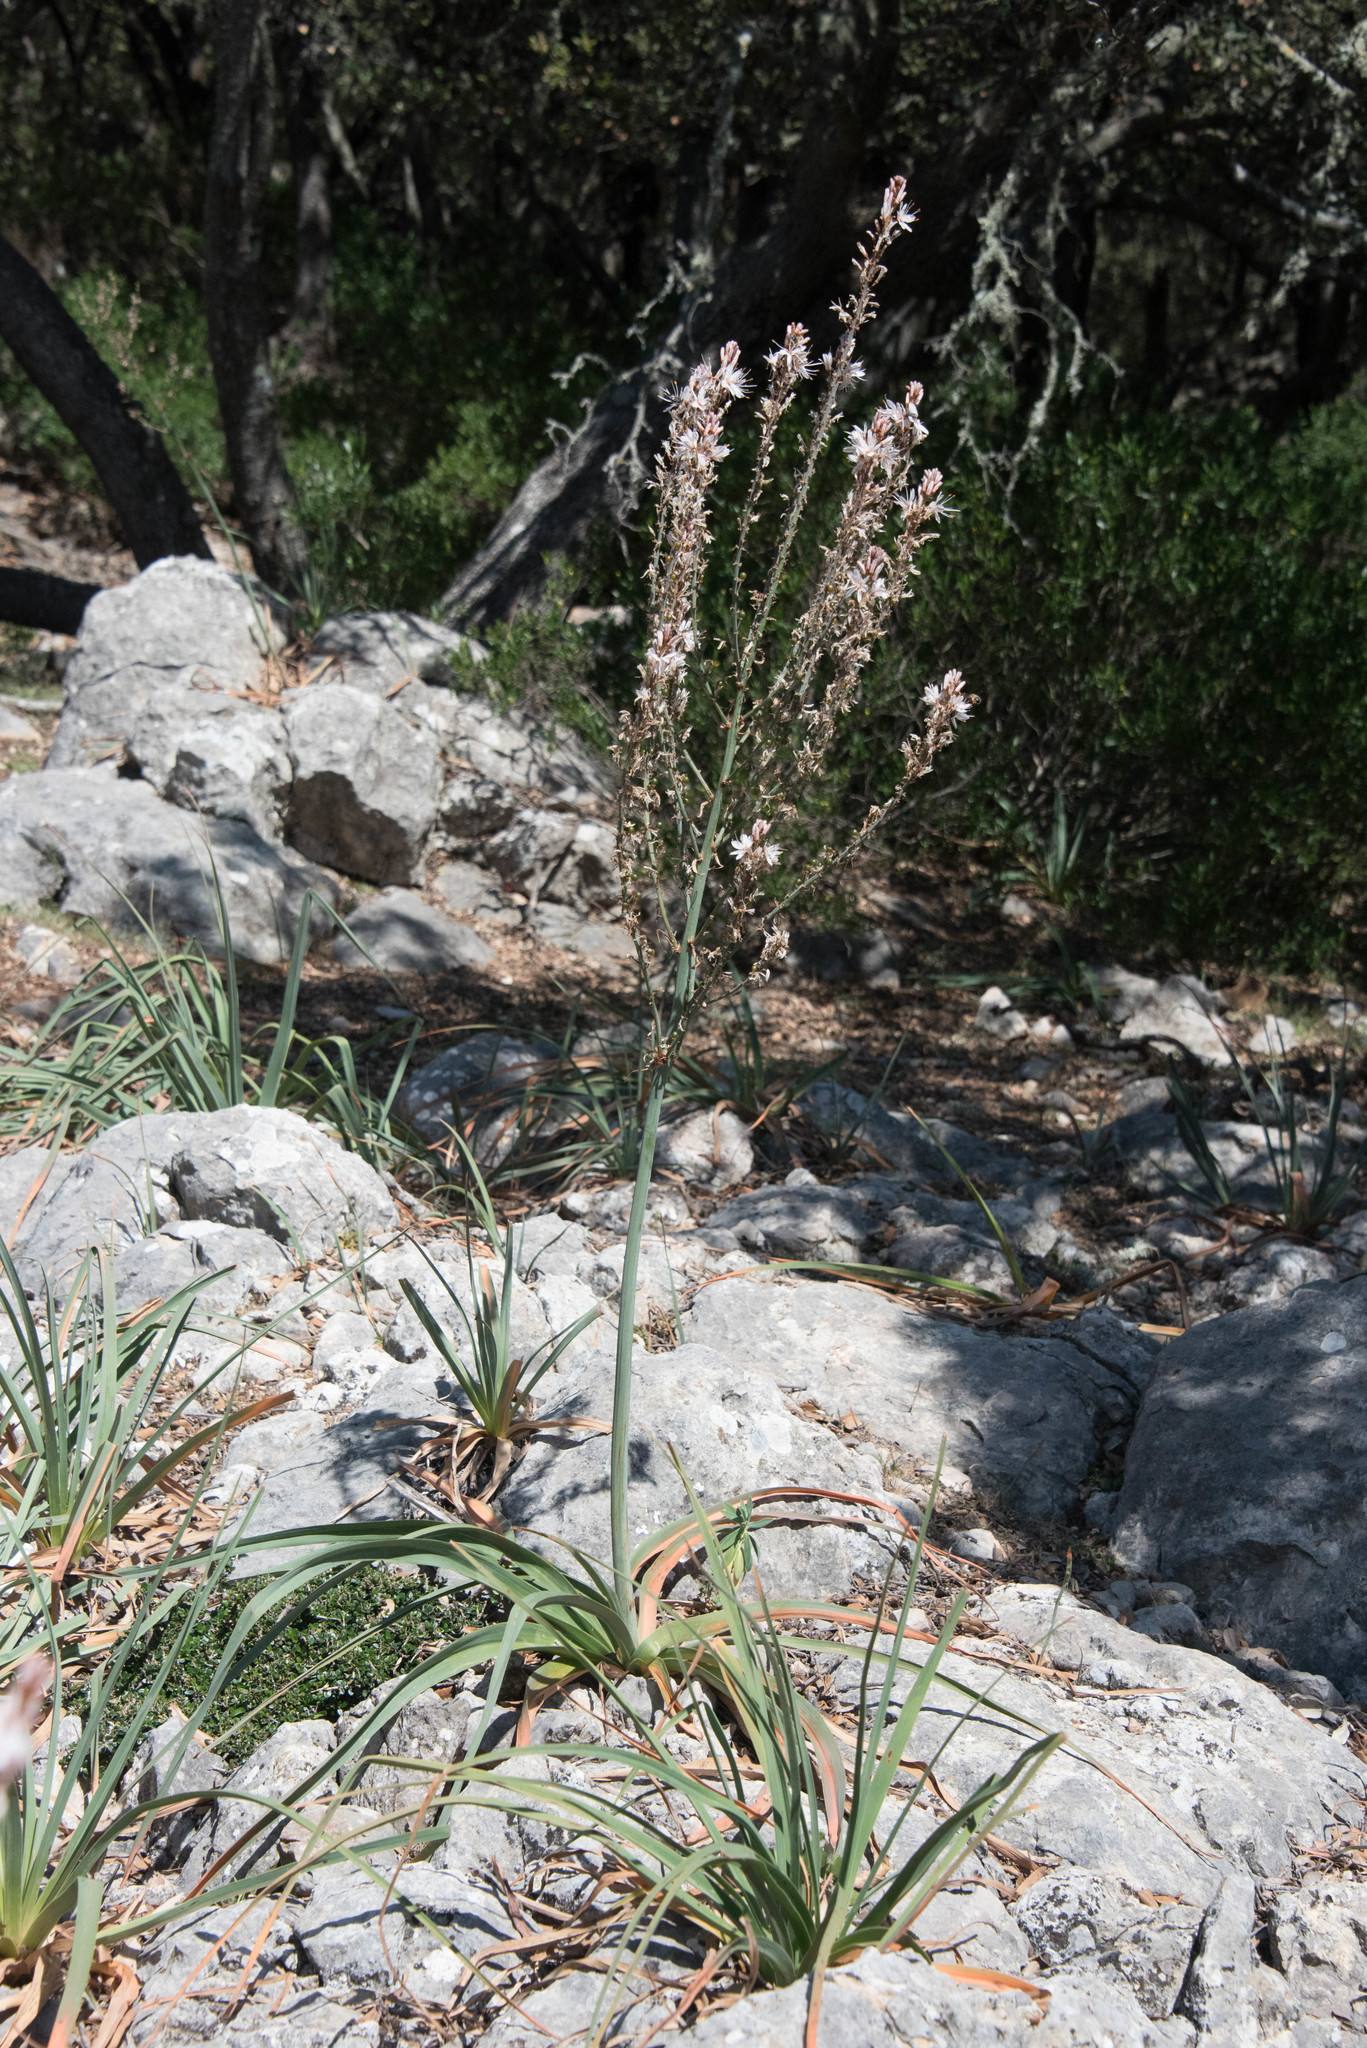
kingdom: Plantae
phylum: Tracheophyta
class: Liliopsida
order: Asparagales
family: Asphodelaceae
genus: Asphodelus
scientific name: Asphodelus aestivus
